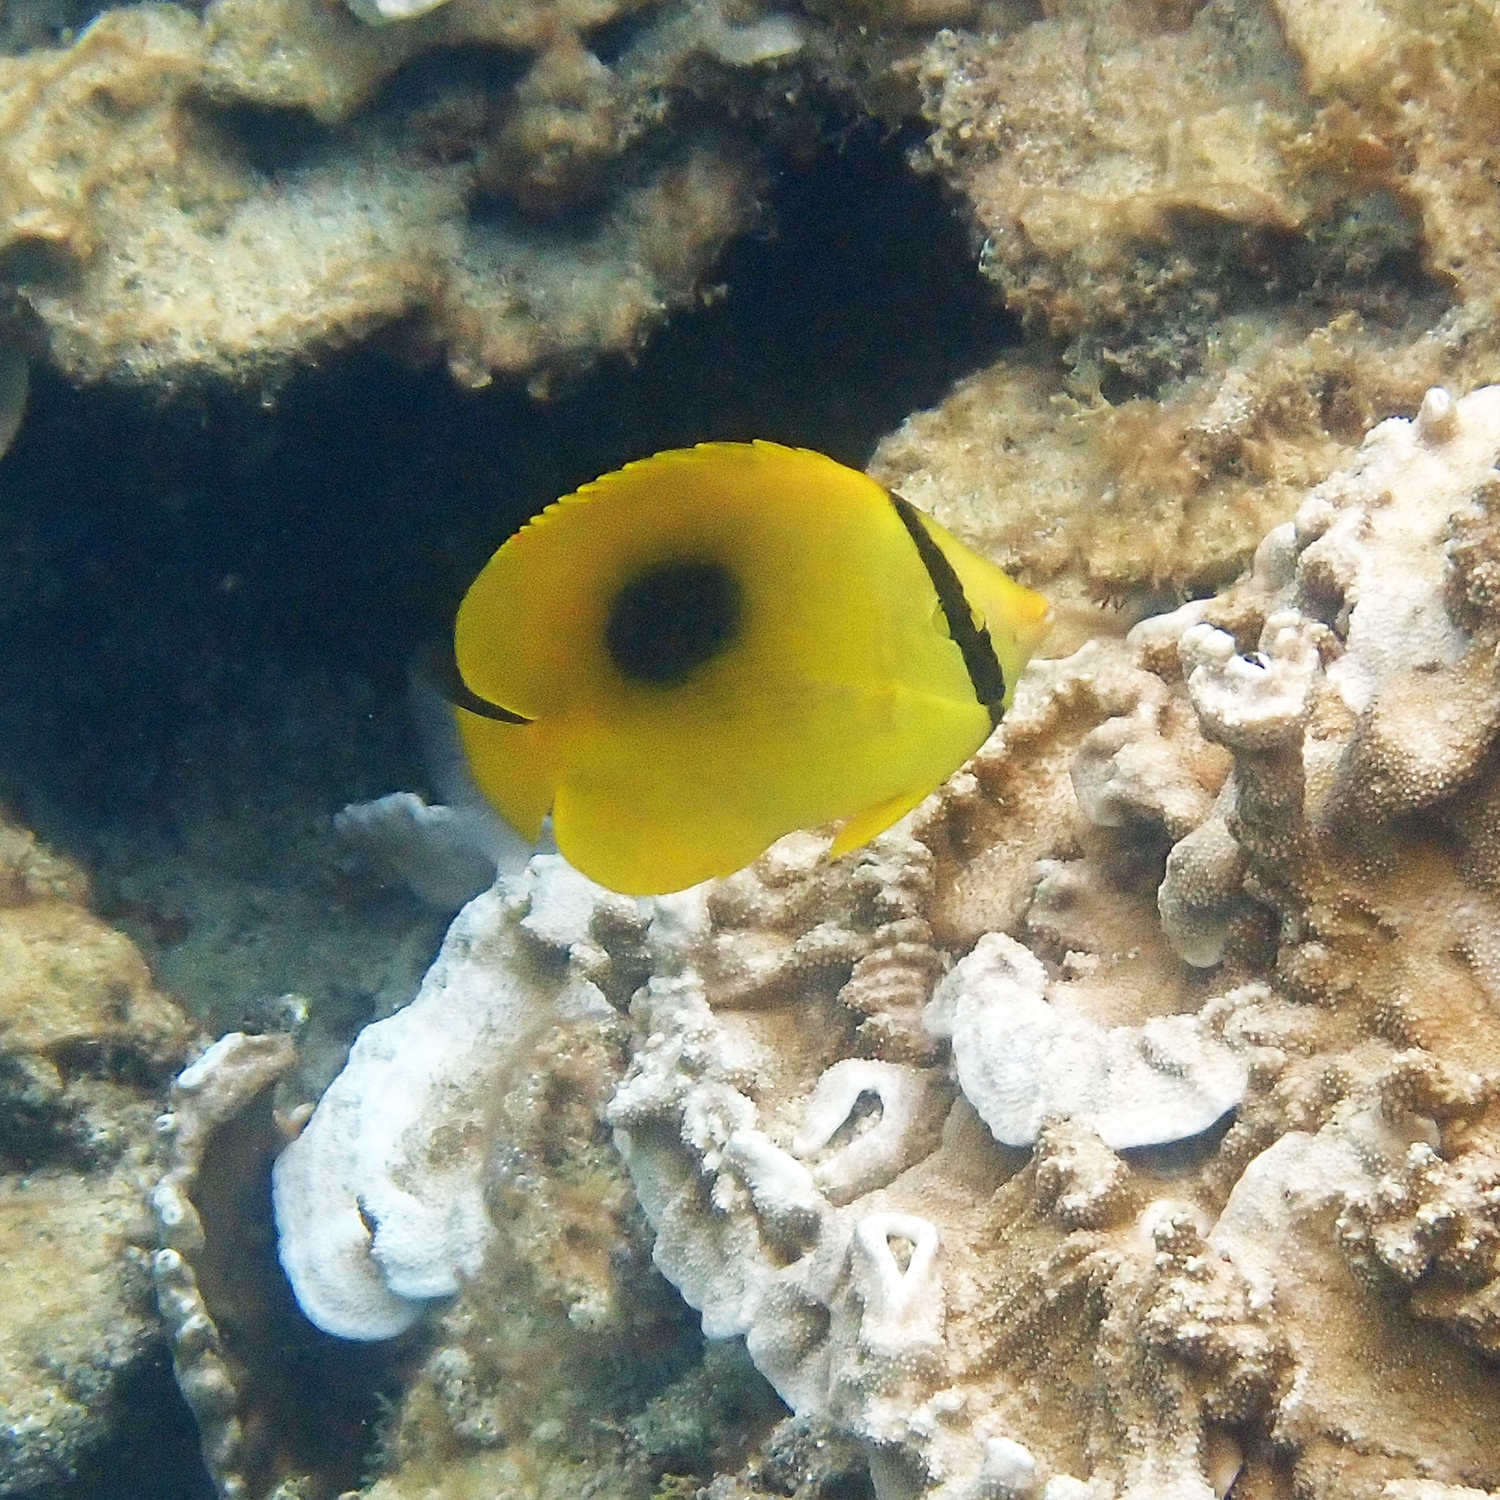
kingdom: Animalia
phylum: Chordata
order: Perciformes
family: Chaetodontidae
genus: Chaetodon
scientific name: Chaetodon speculum
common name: Mirror butterflyfish
